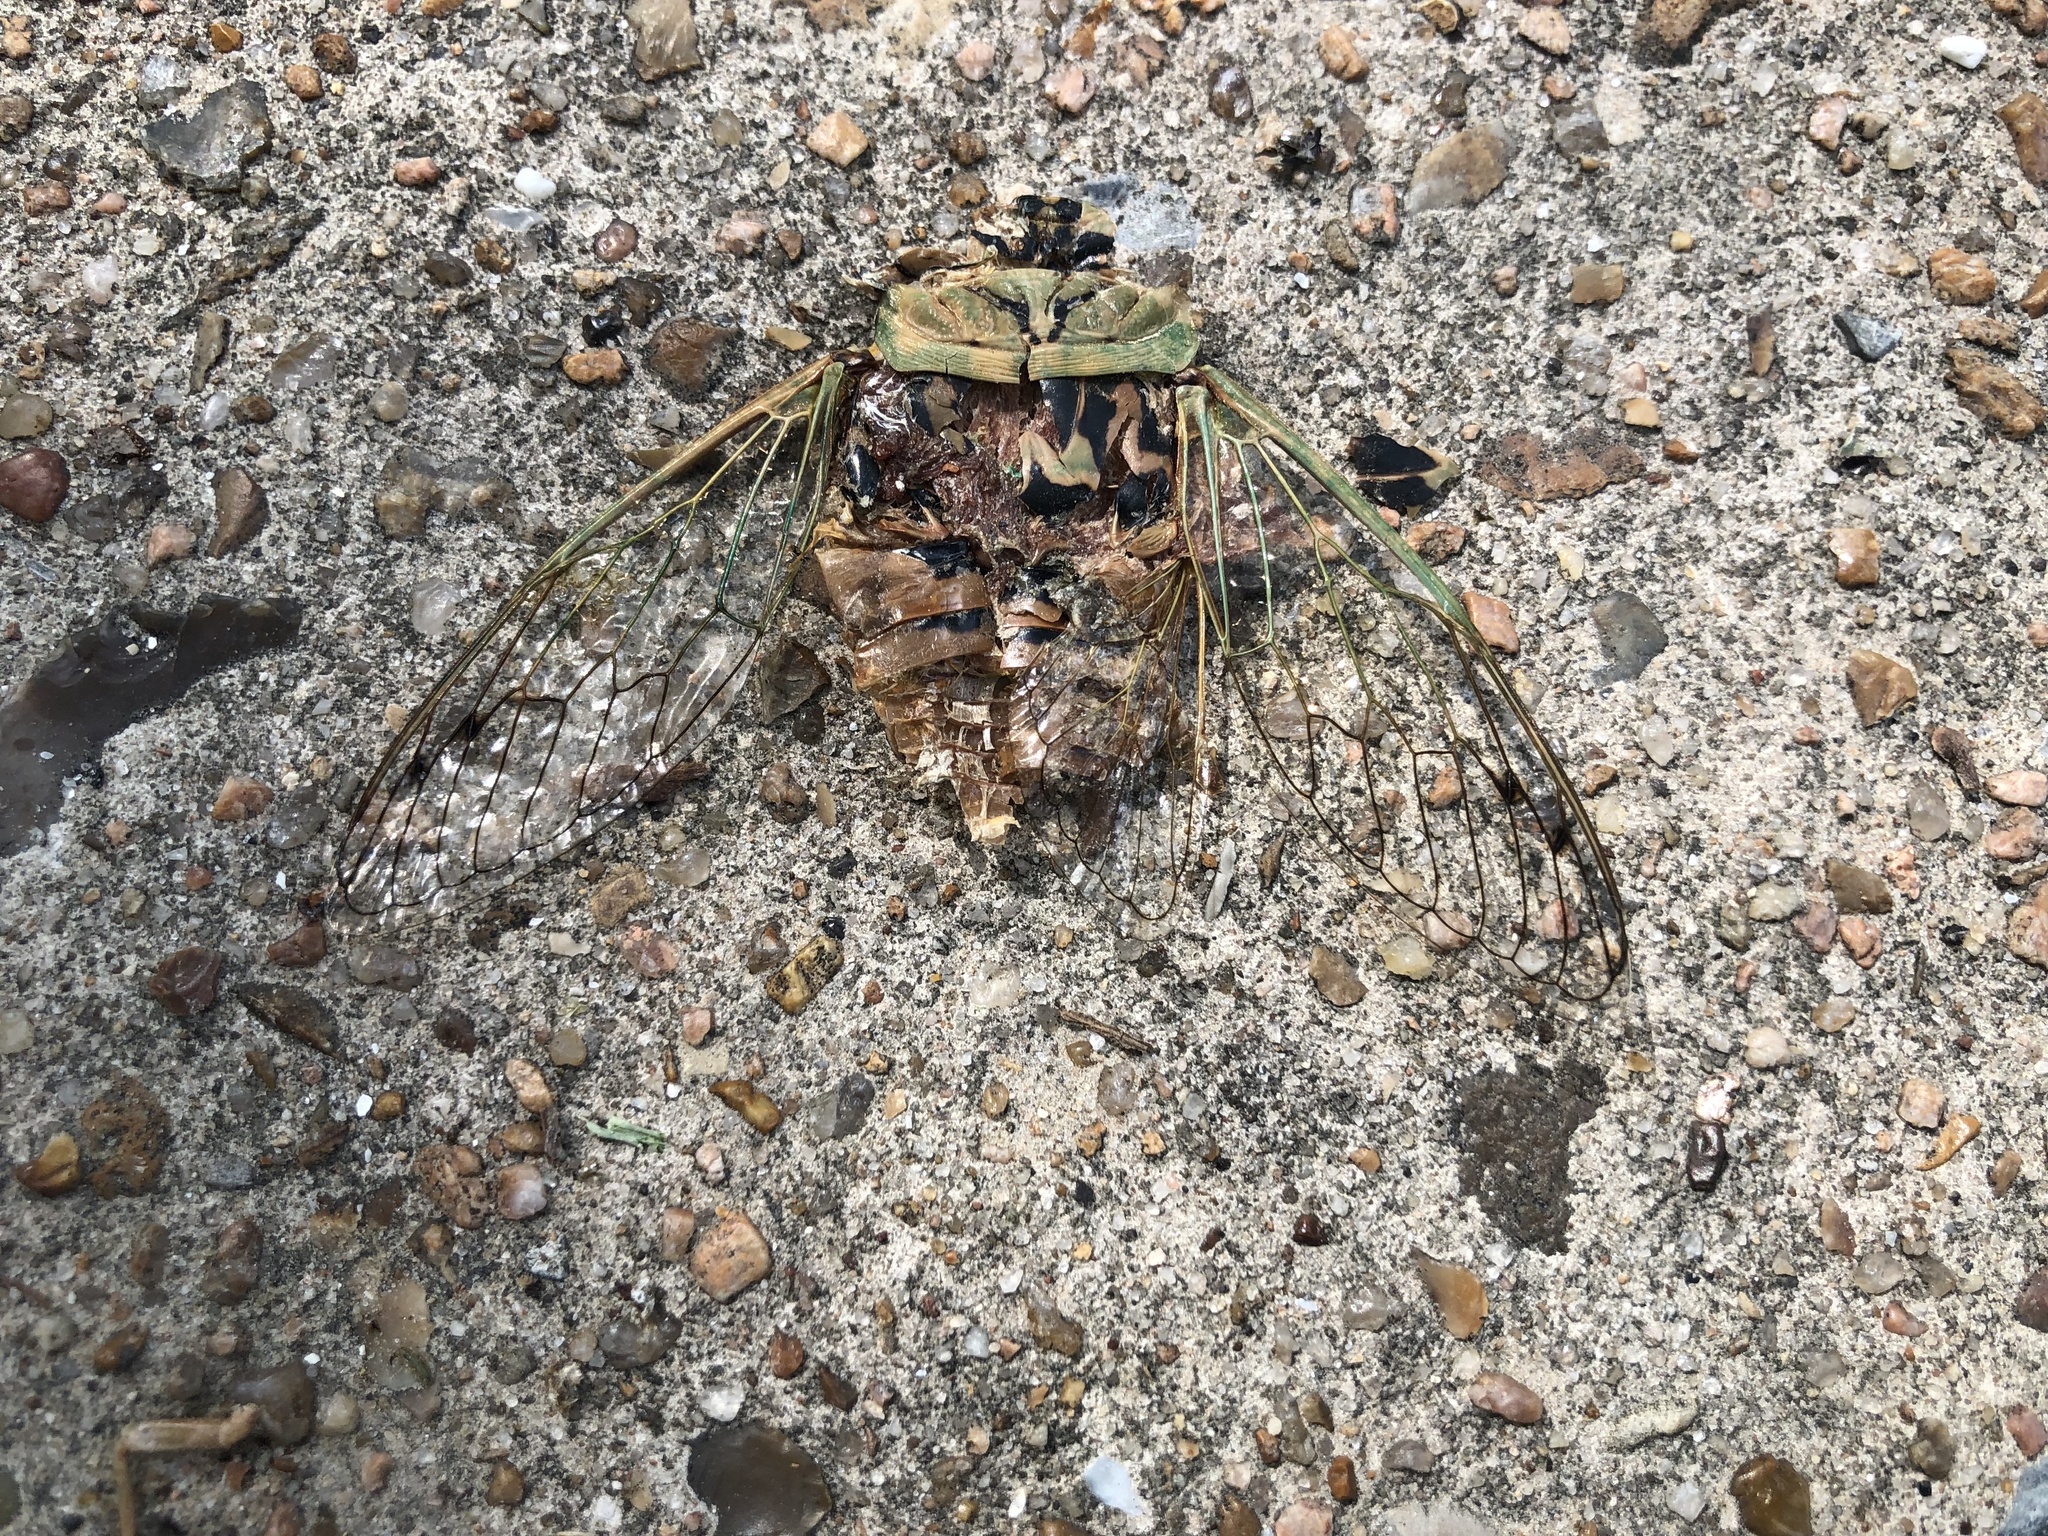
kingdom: Animalia
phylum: Arthropoda
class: Insecta
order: Hemiptera
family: Cicadidae
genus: Megatibicen
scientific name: Megatibicen resh
